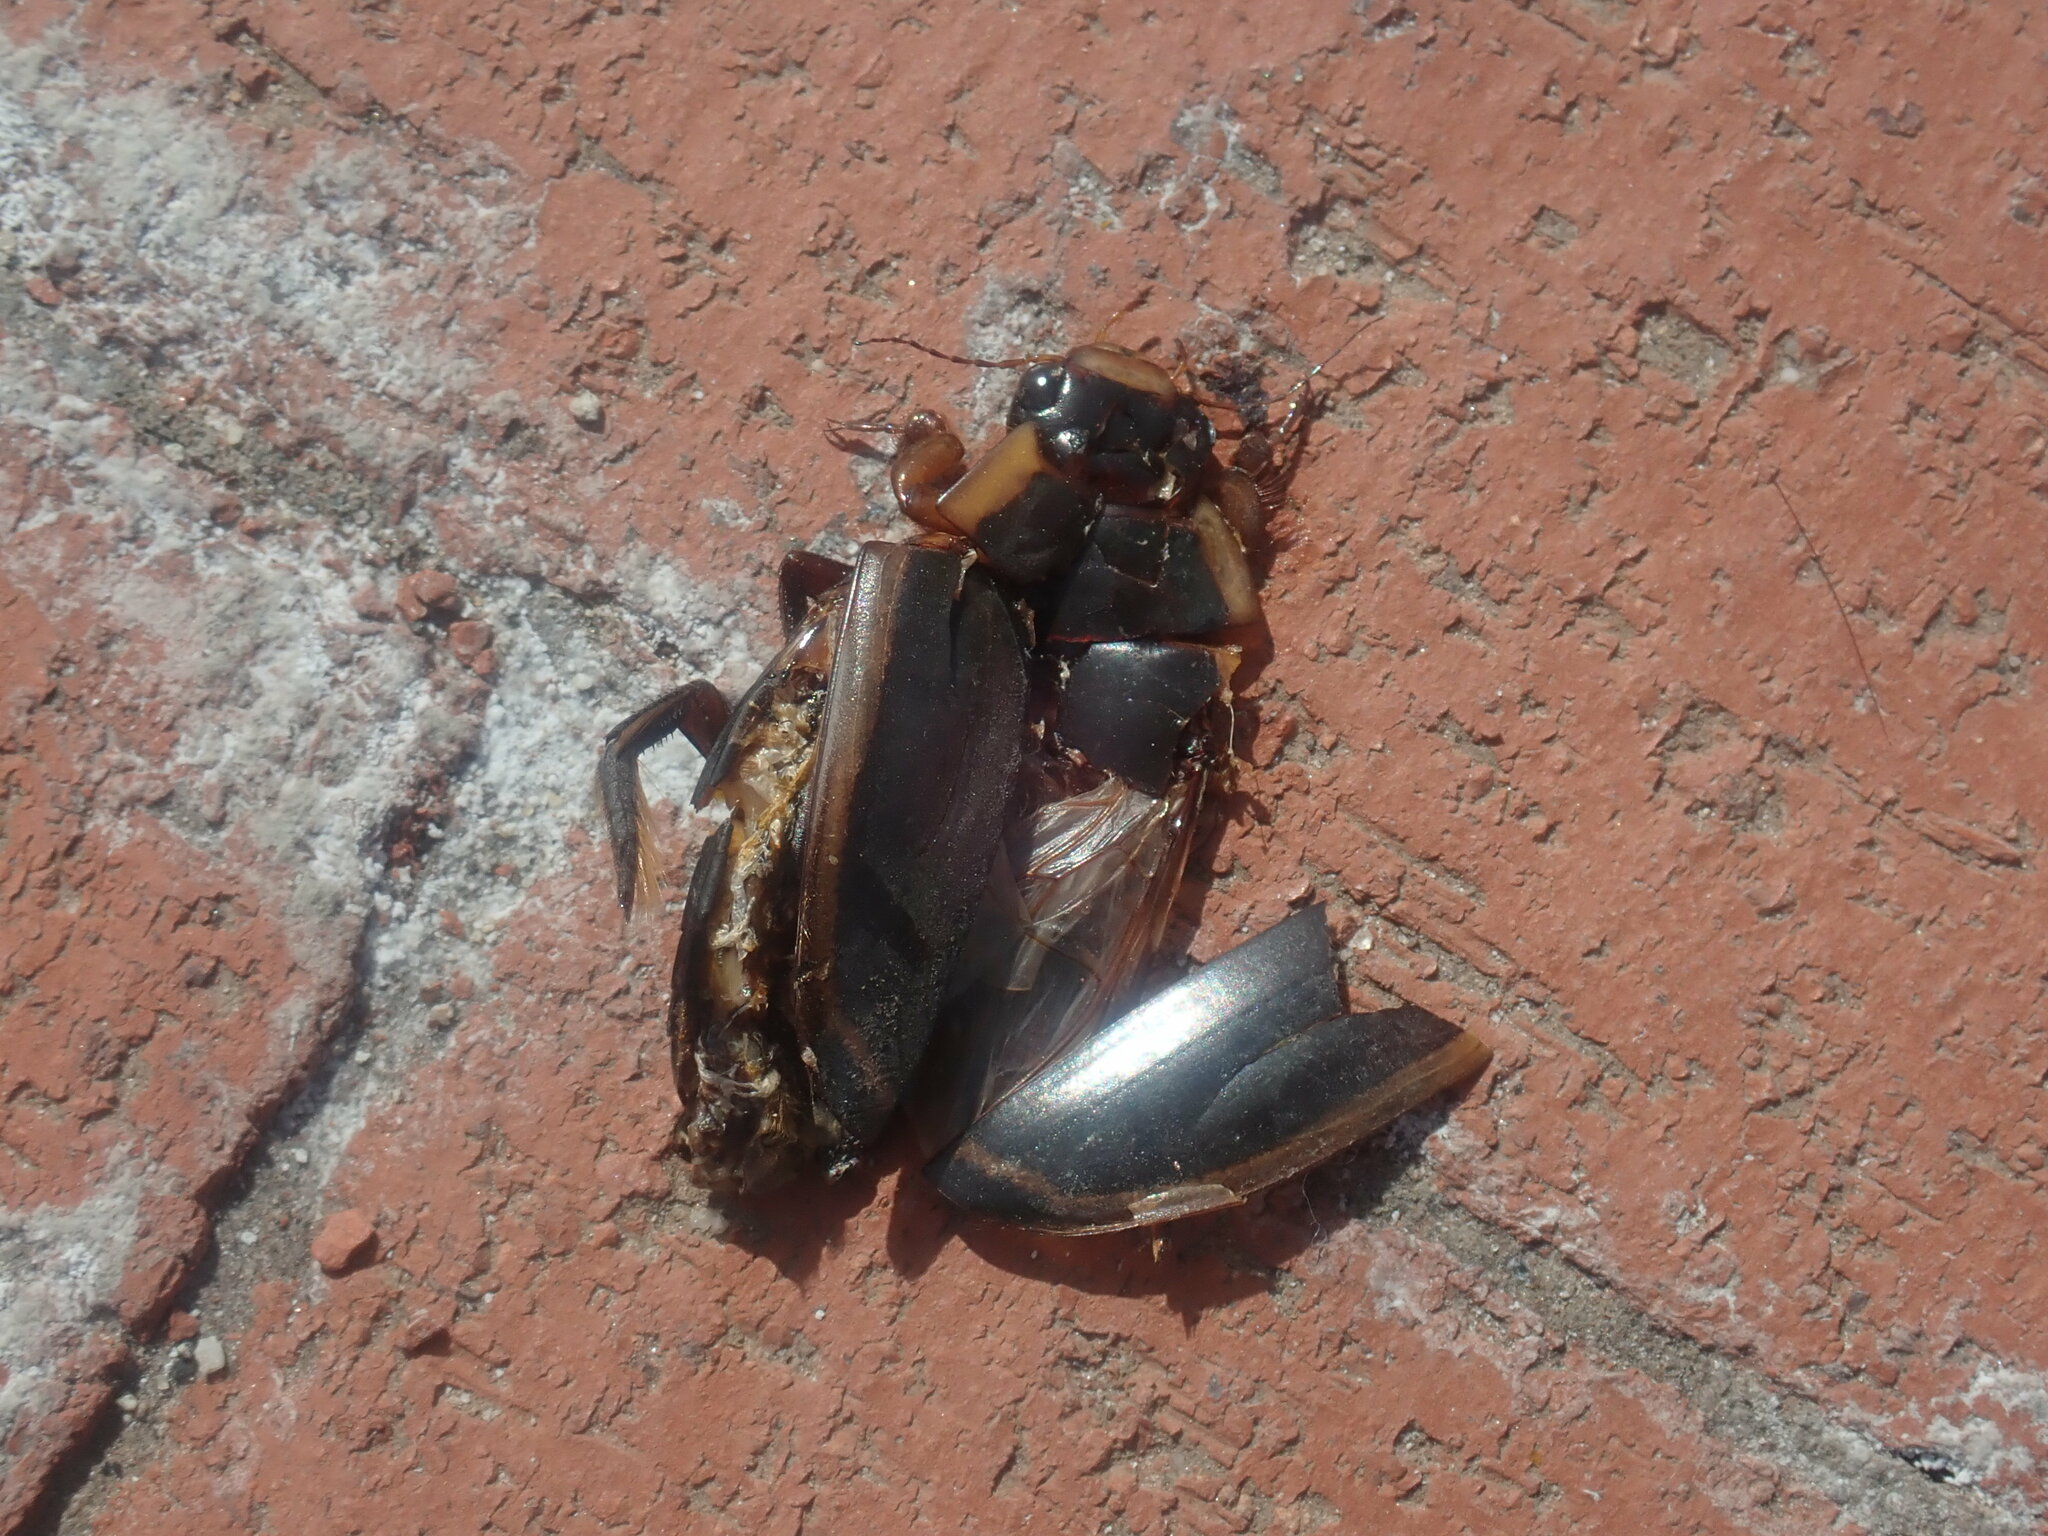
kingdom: Animalia
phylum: Arthropoda
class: Insecta
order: Coleoptera
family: Dytiscidae
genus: Dytiscus
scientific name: Dytiscus verticalis
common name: Vertical diving beetle
